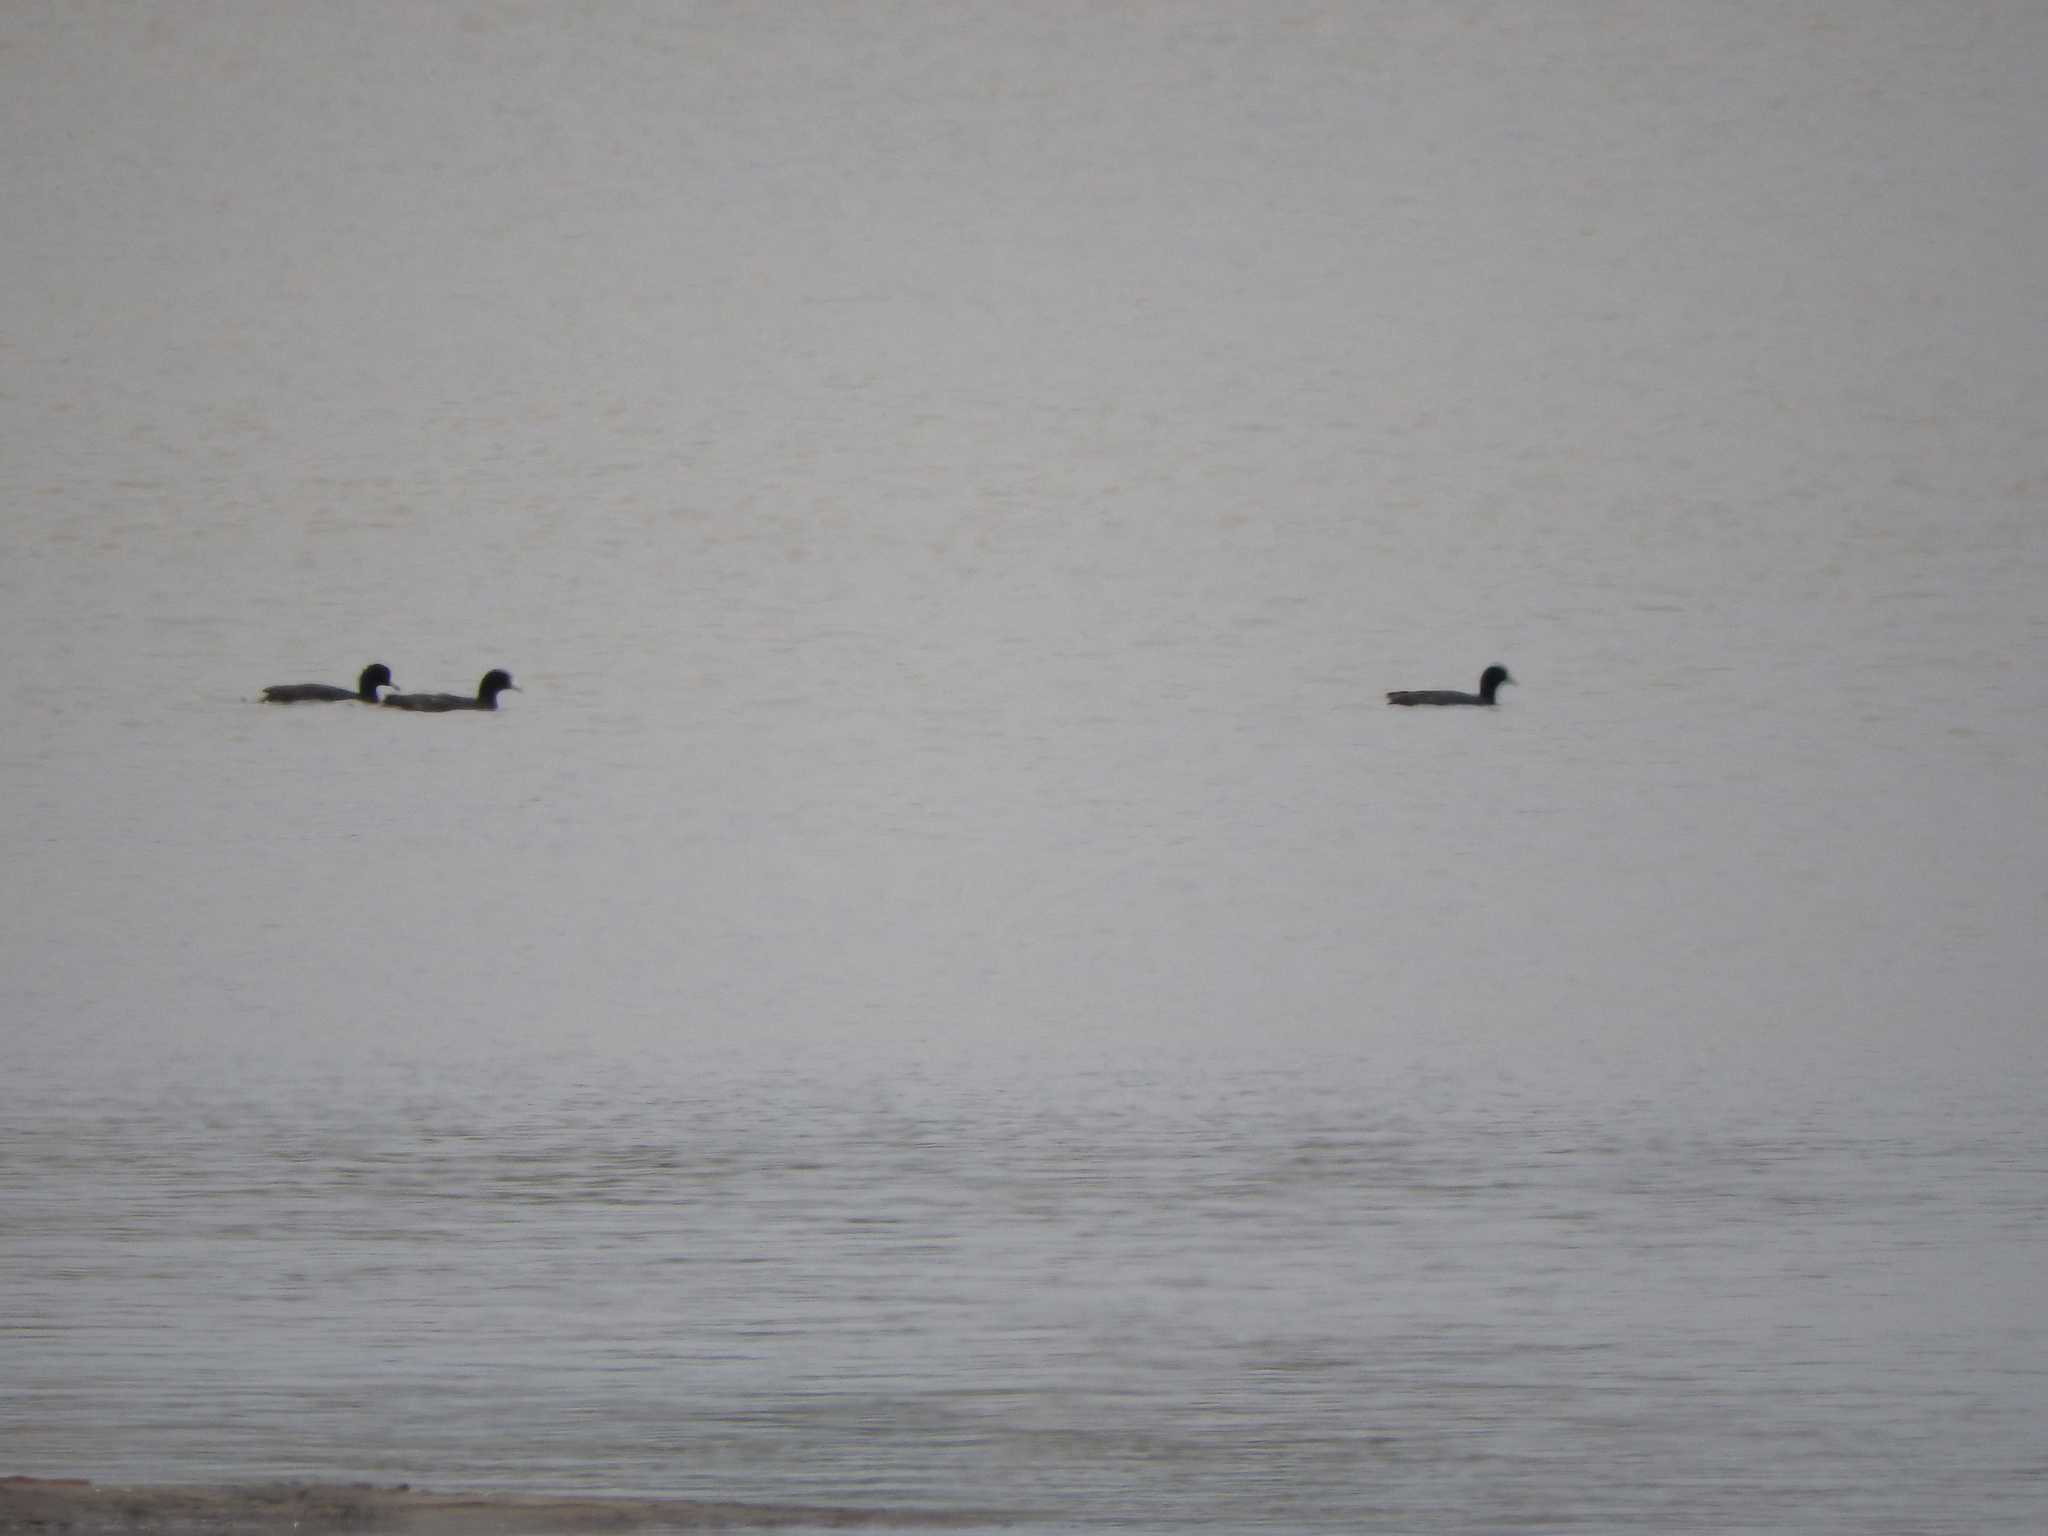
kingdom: Animalia
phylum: Chordata
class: Aves
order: Gruiformes
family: Rallidae
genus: Fulica
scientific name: Fulica americana
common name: American coot
